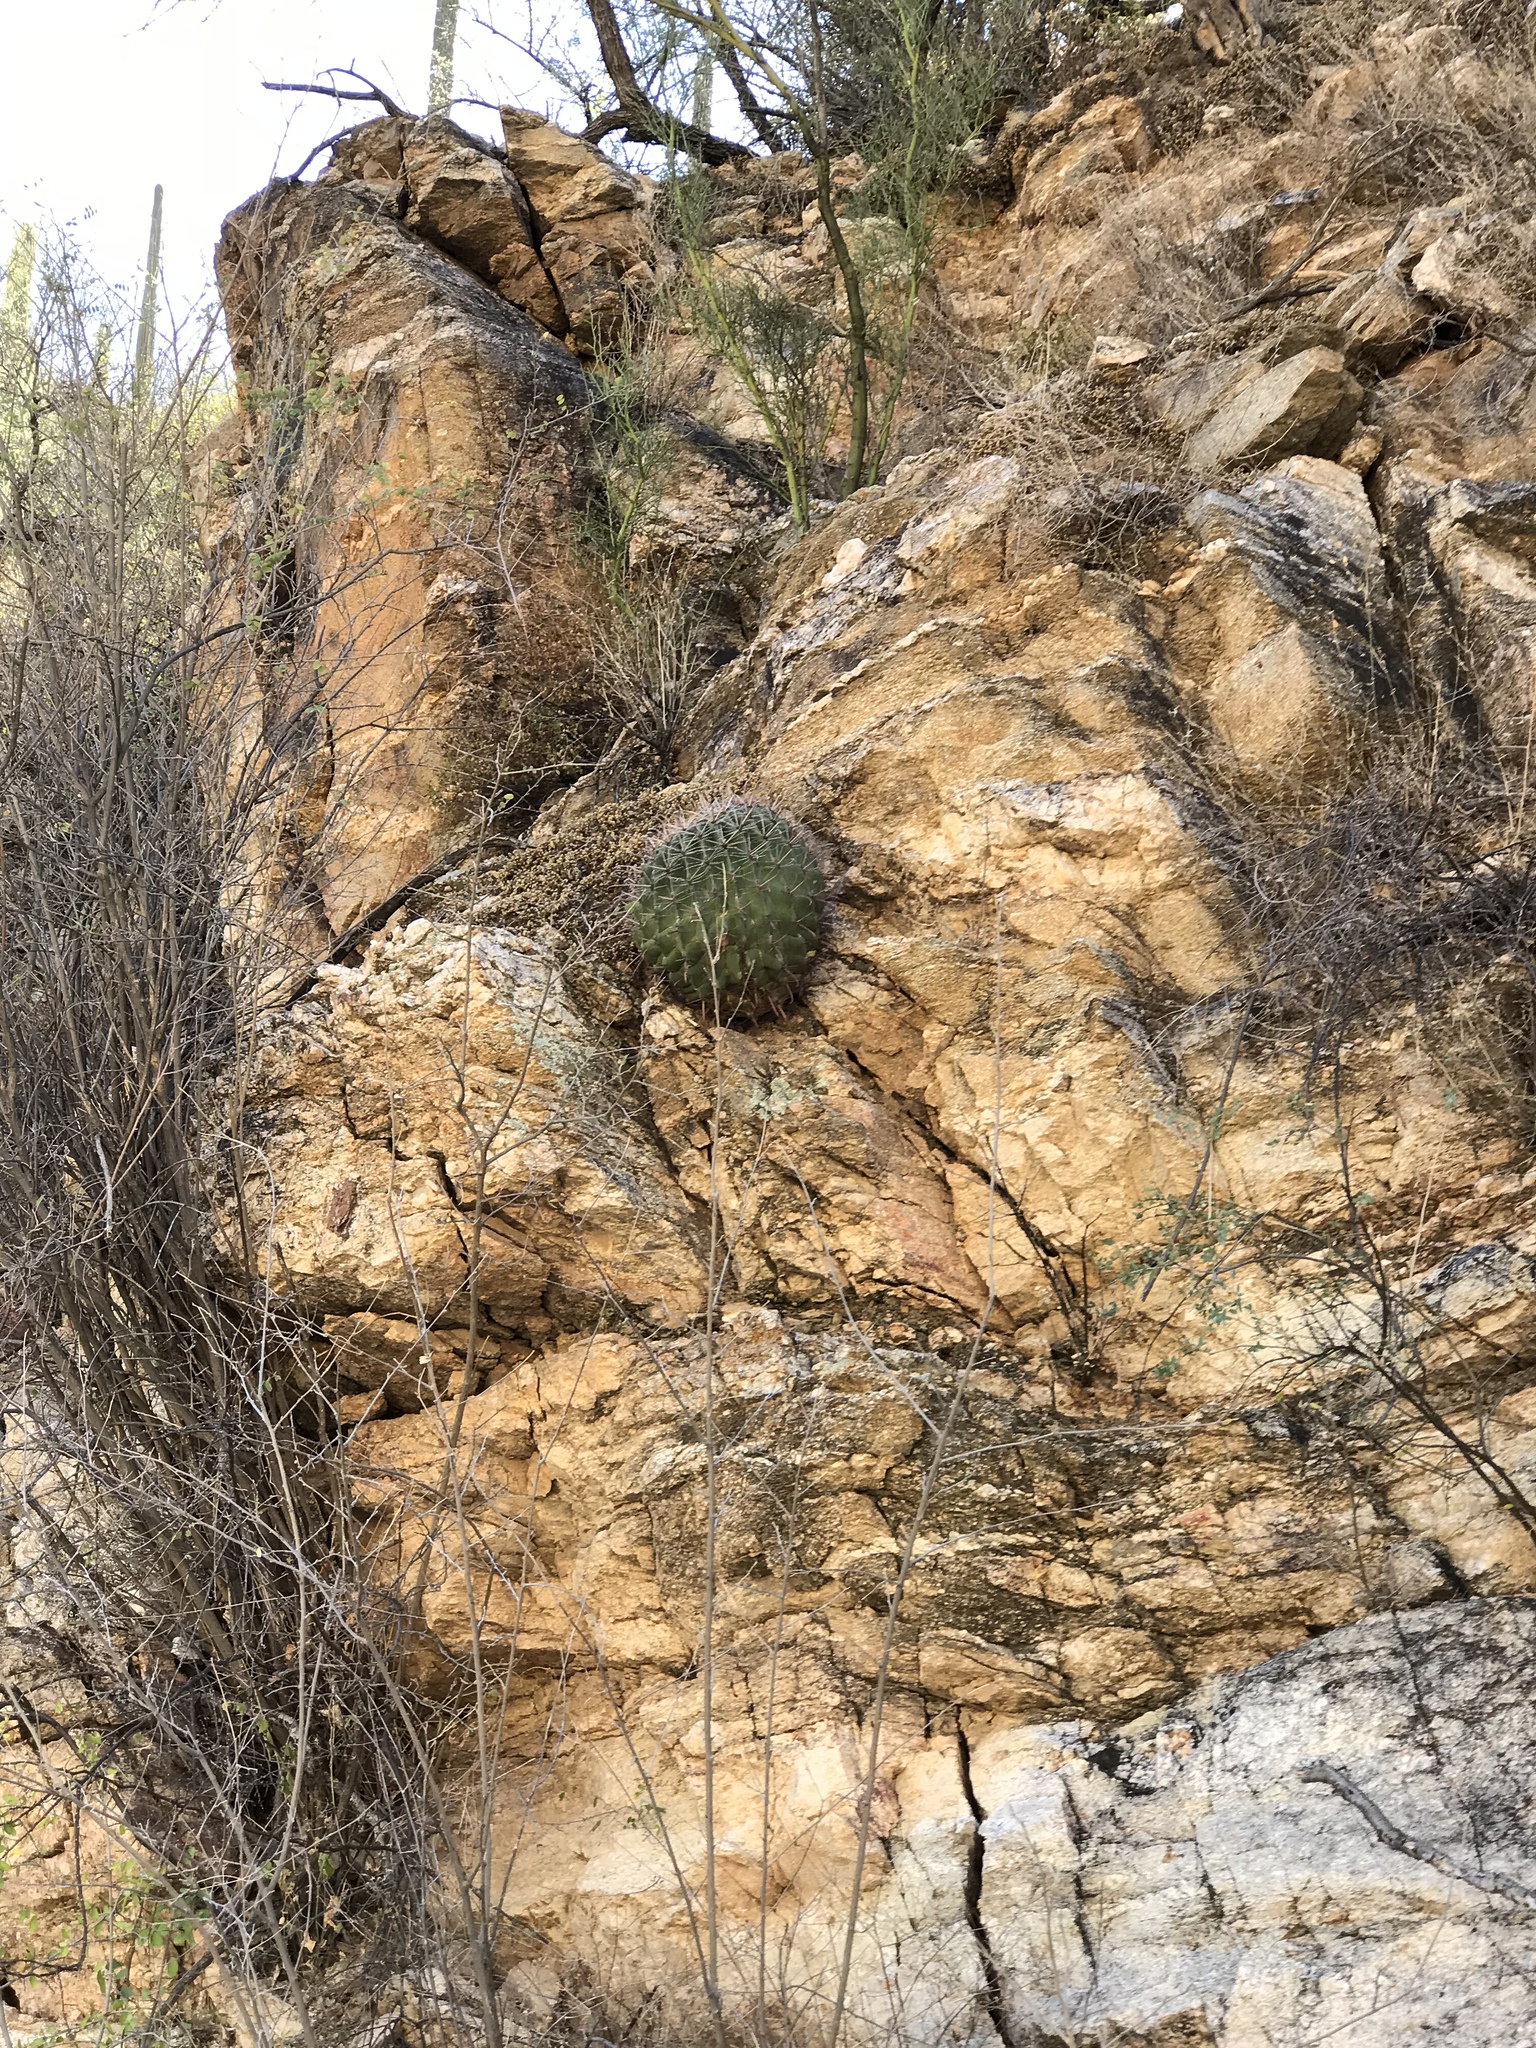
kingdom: Plantae
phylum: Tracheophyta
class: Magnoliopsida
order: Caryophyllales
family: Cactaceae
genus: Ferocactus
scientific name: Ferocactus wislizeni
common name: Candy barrel cactus
